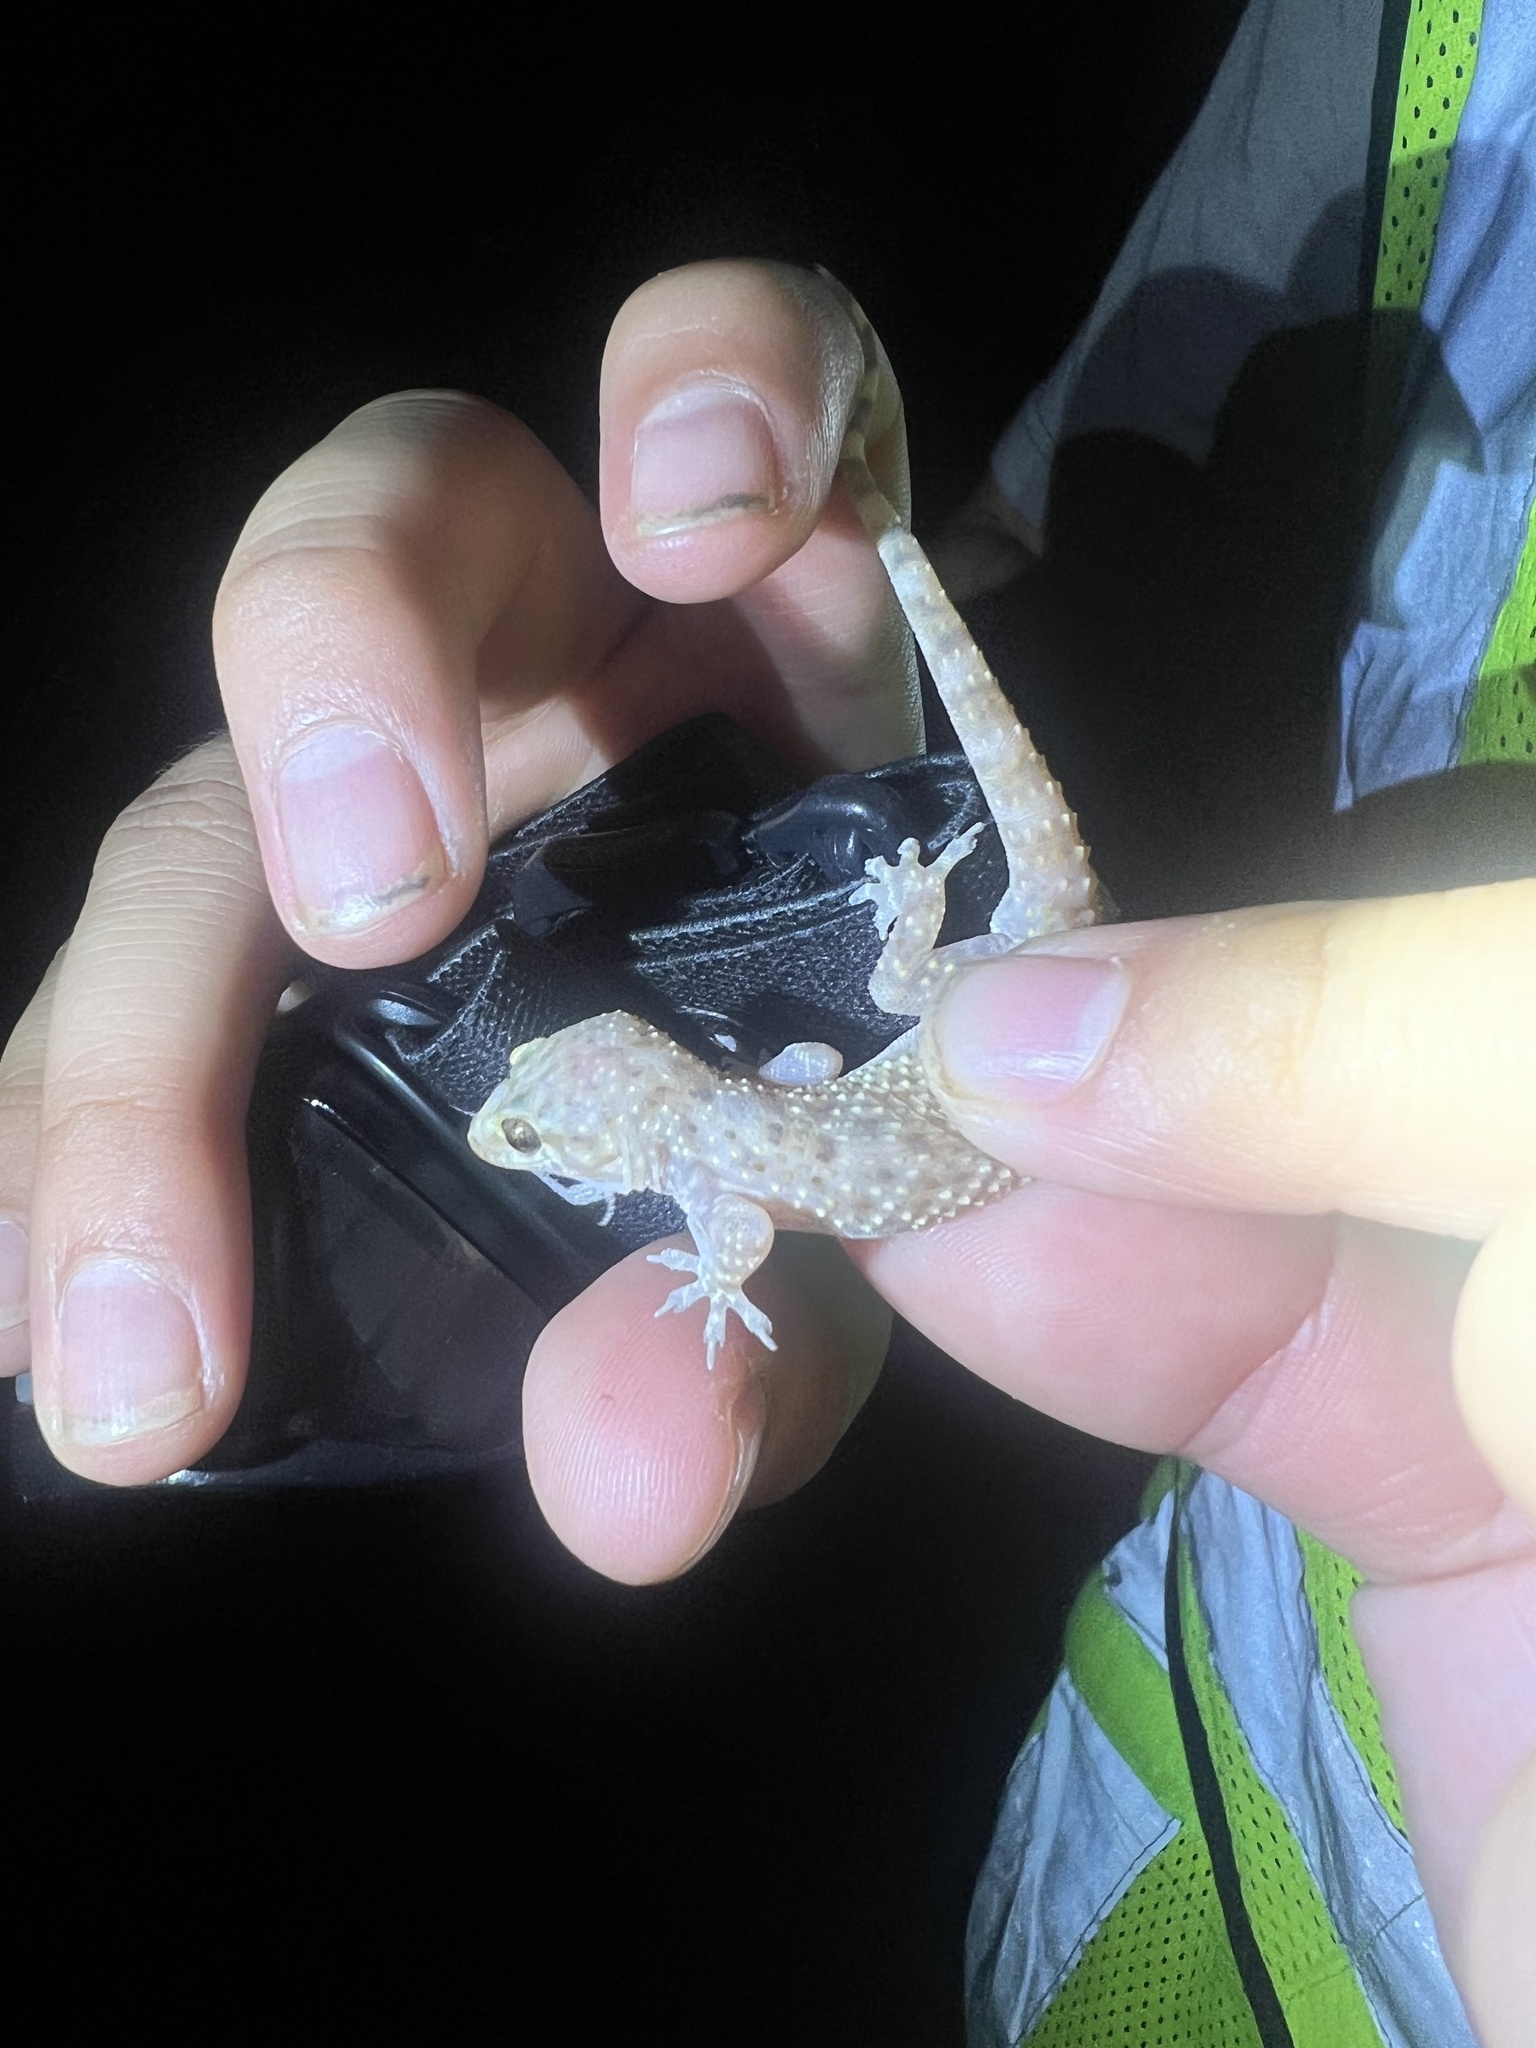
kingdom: Animalia
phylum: Chordata
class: Squamata
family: Gekkonidae
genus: Hemidactylus
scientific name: Hemidactylus turcicus
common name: Turkish gecko
